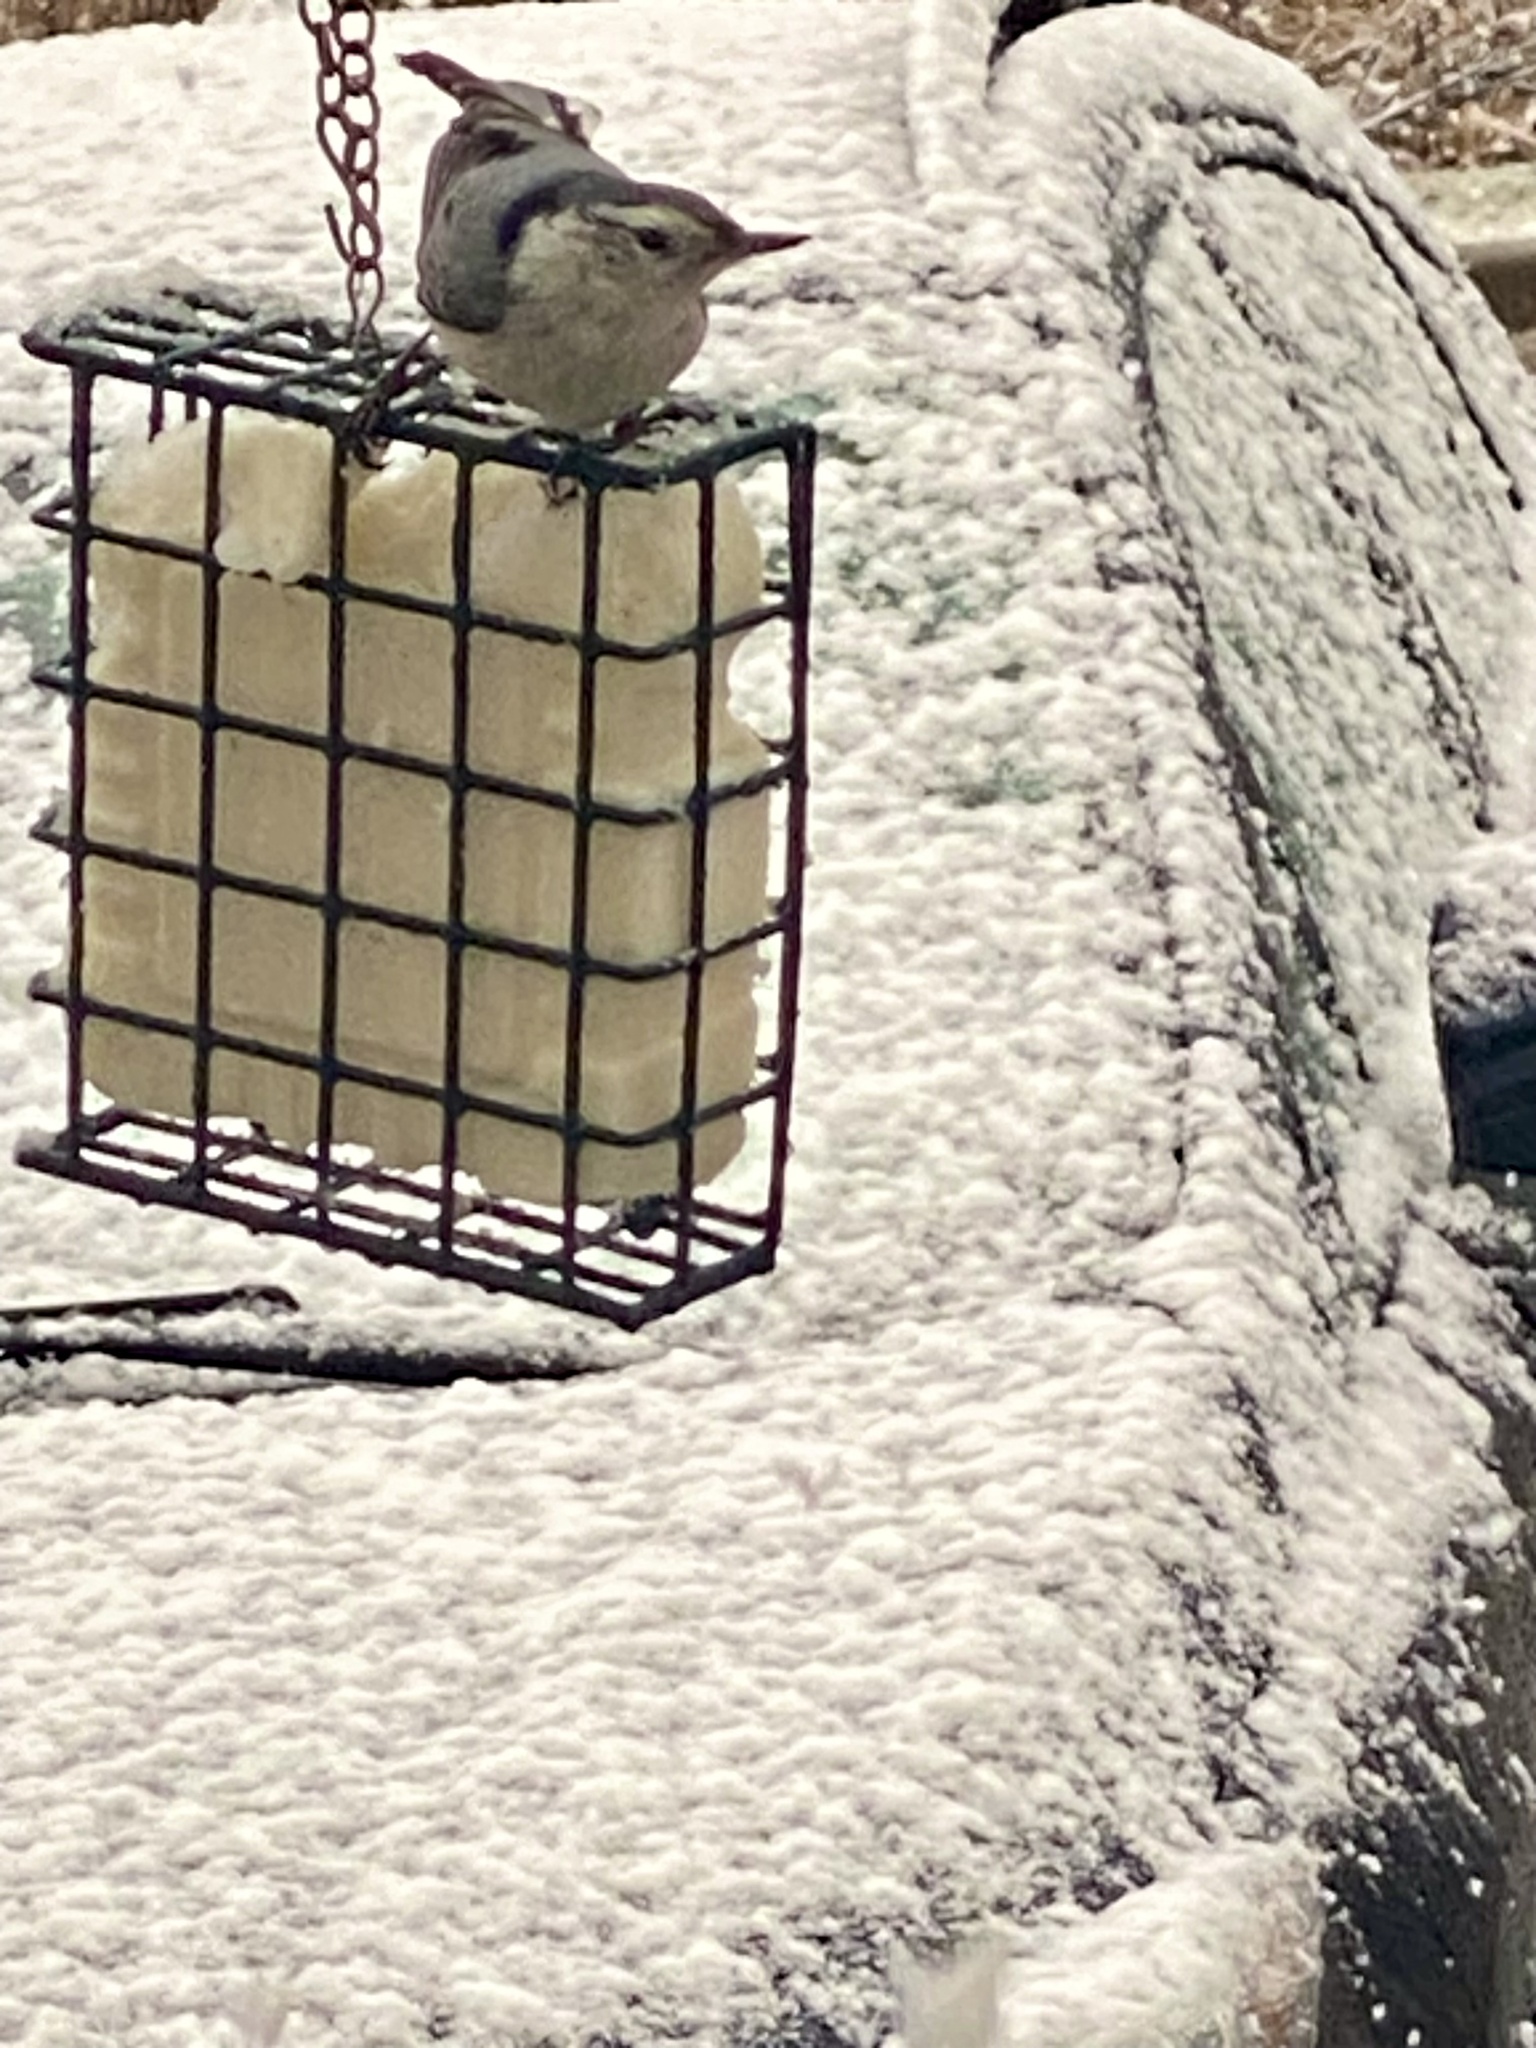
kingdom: Animalia
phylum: Chordata
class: Aves
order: Passeriformes
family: Sittidae
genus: Sitta
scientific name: Sitta carolinensis
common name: White-breasted nuthatch
